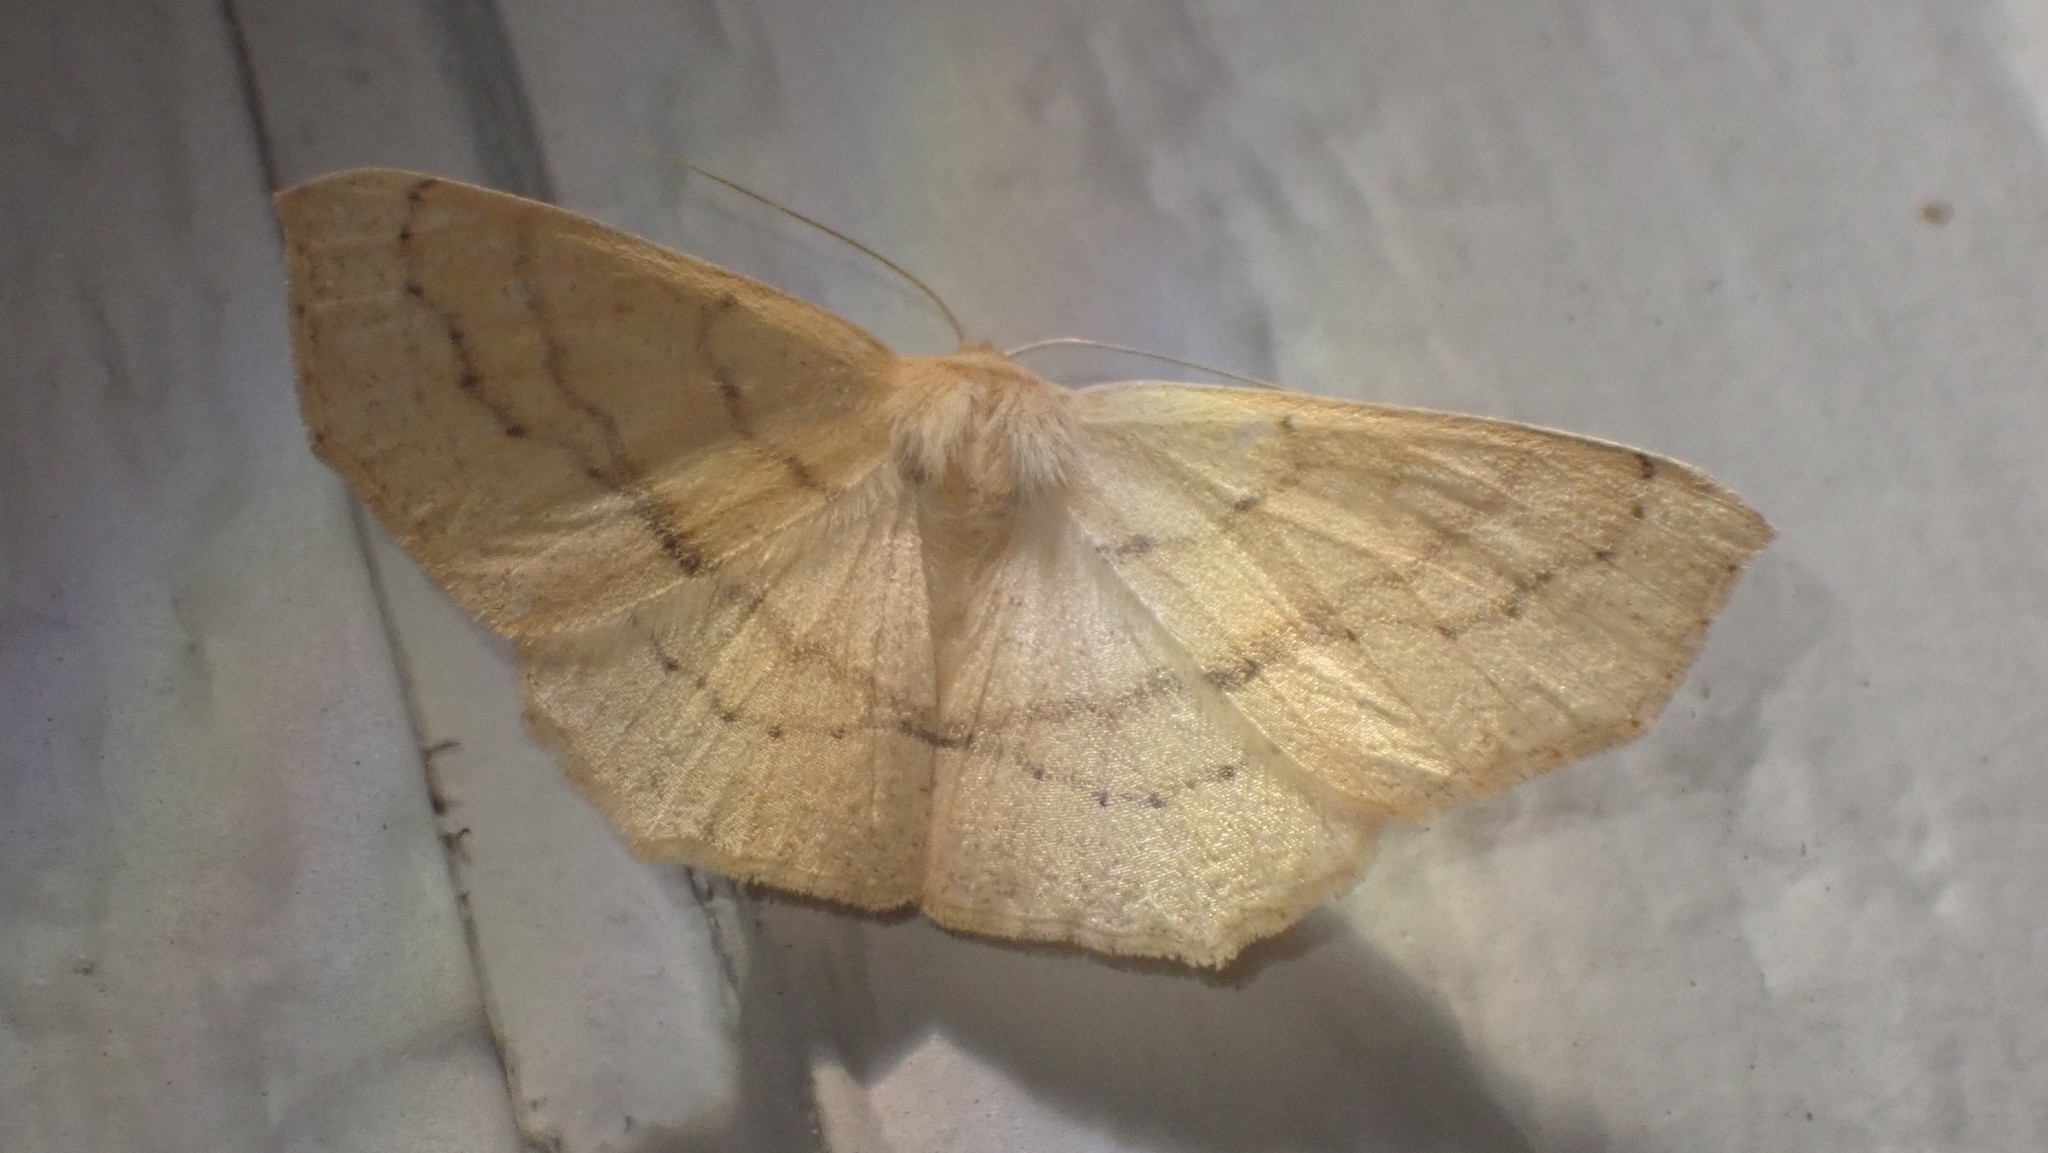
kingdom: Animalia
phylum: Arthropoda
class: Insecta
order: Lepidoptera
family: Geometridae
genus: Sabulodes
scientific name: Sabulodes aegrotata
